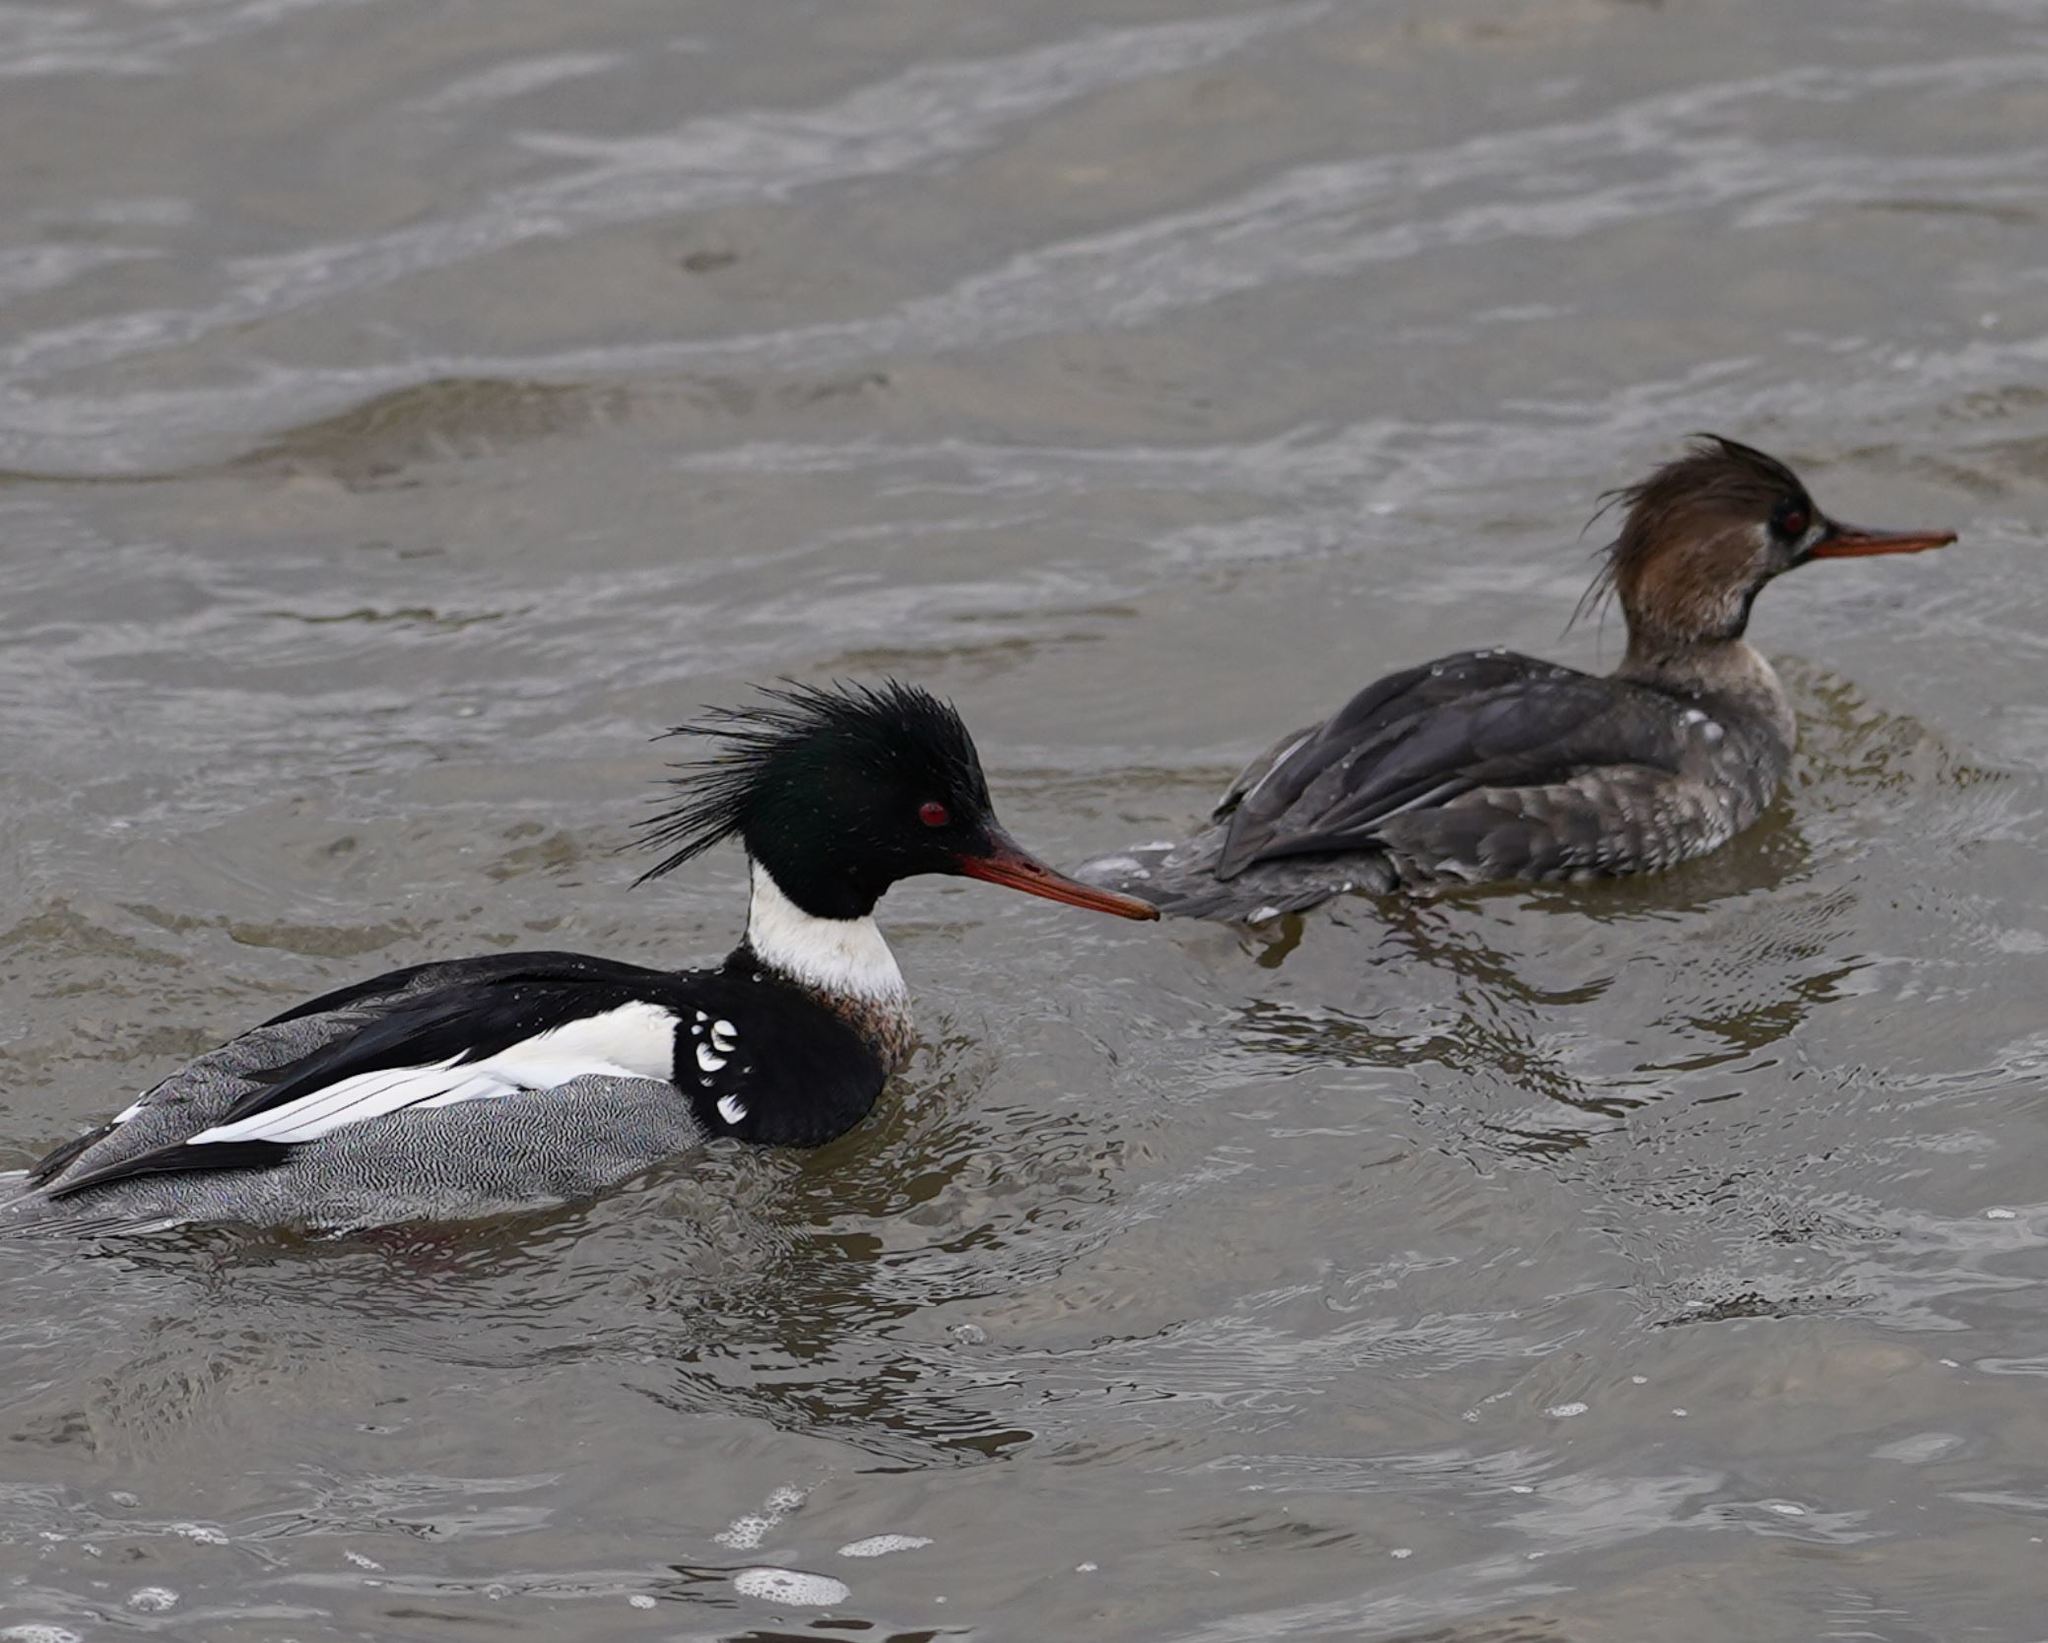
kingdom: Animalia
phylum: Chordata
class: Aves
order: Anseriformes
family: Anatidae
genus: Mergus
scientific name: Mergus serrator
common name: Red-breasted merganser
